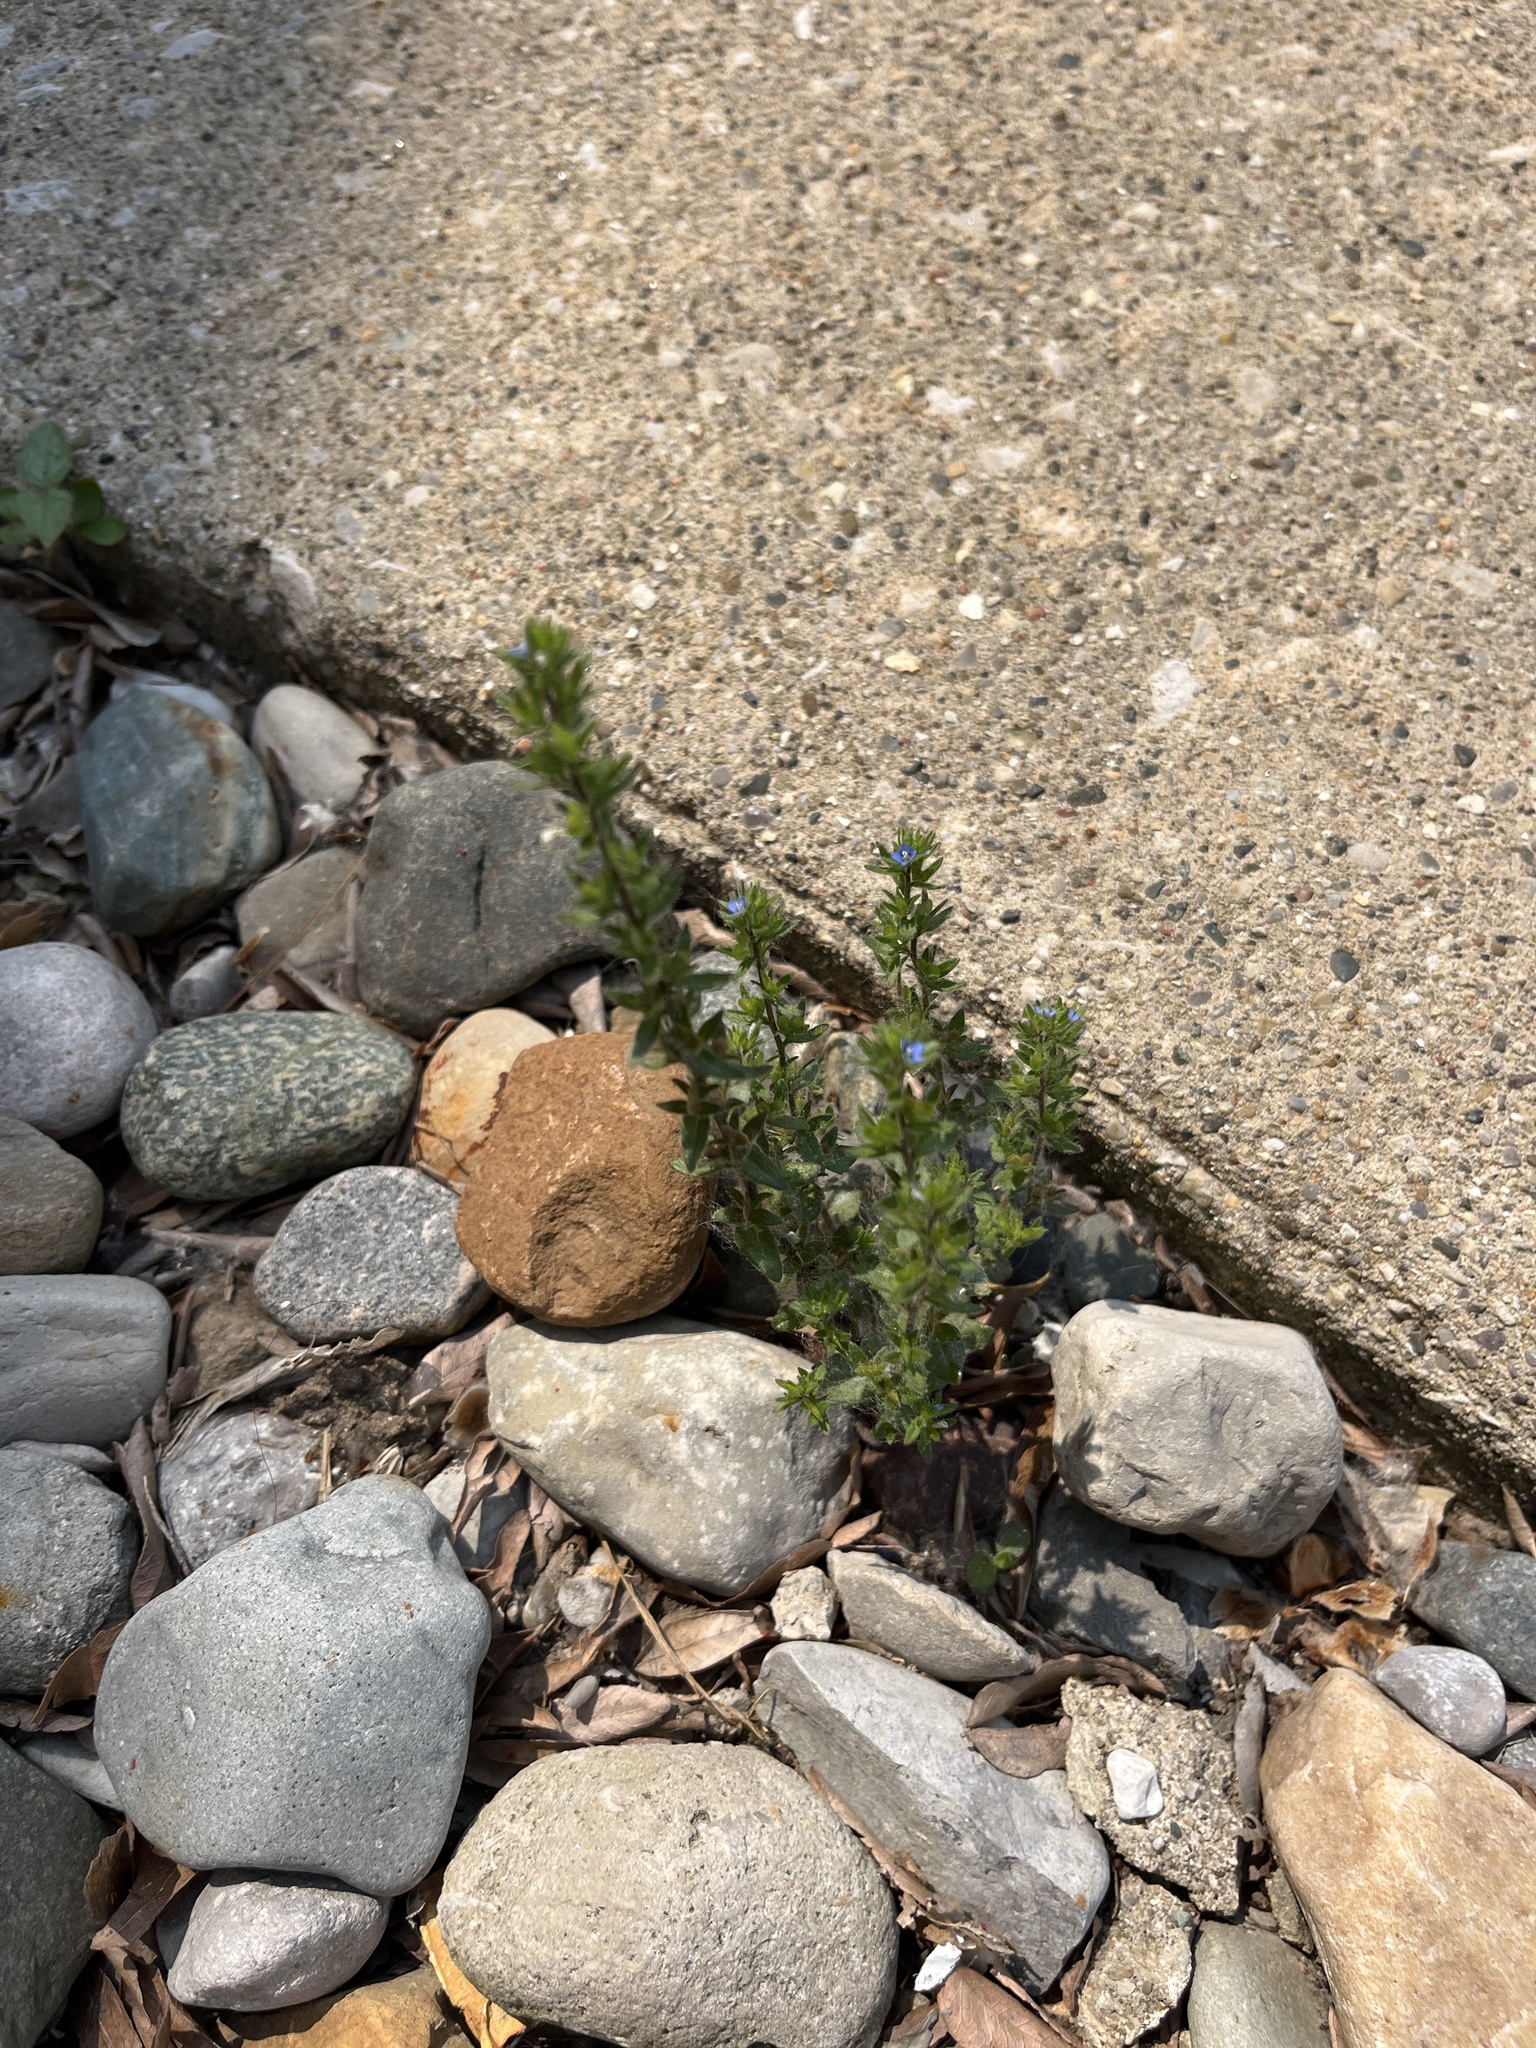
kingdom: Plantae
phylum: Tracheophyta
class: Magnoliopsida
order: Lamiales
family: Plantaginaceae
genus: Veronica
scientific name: Veronica arvensis
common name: Corn speedwell
